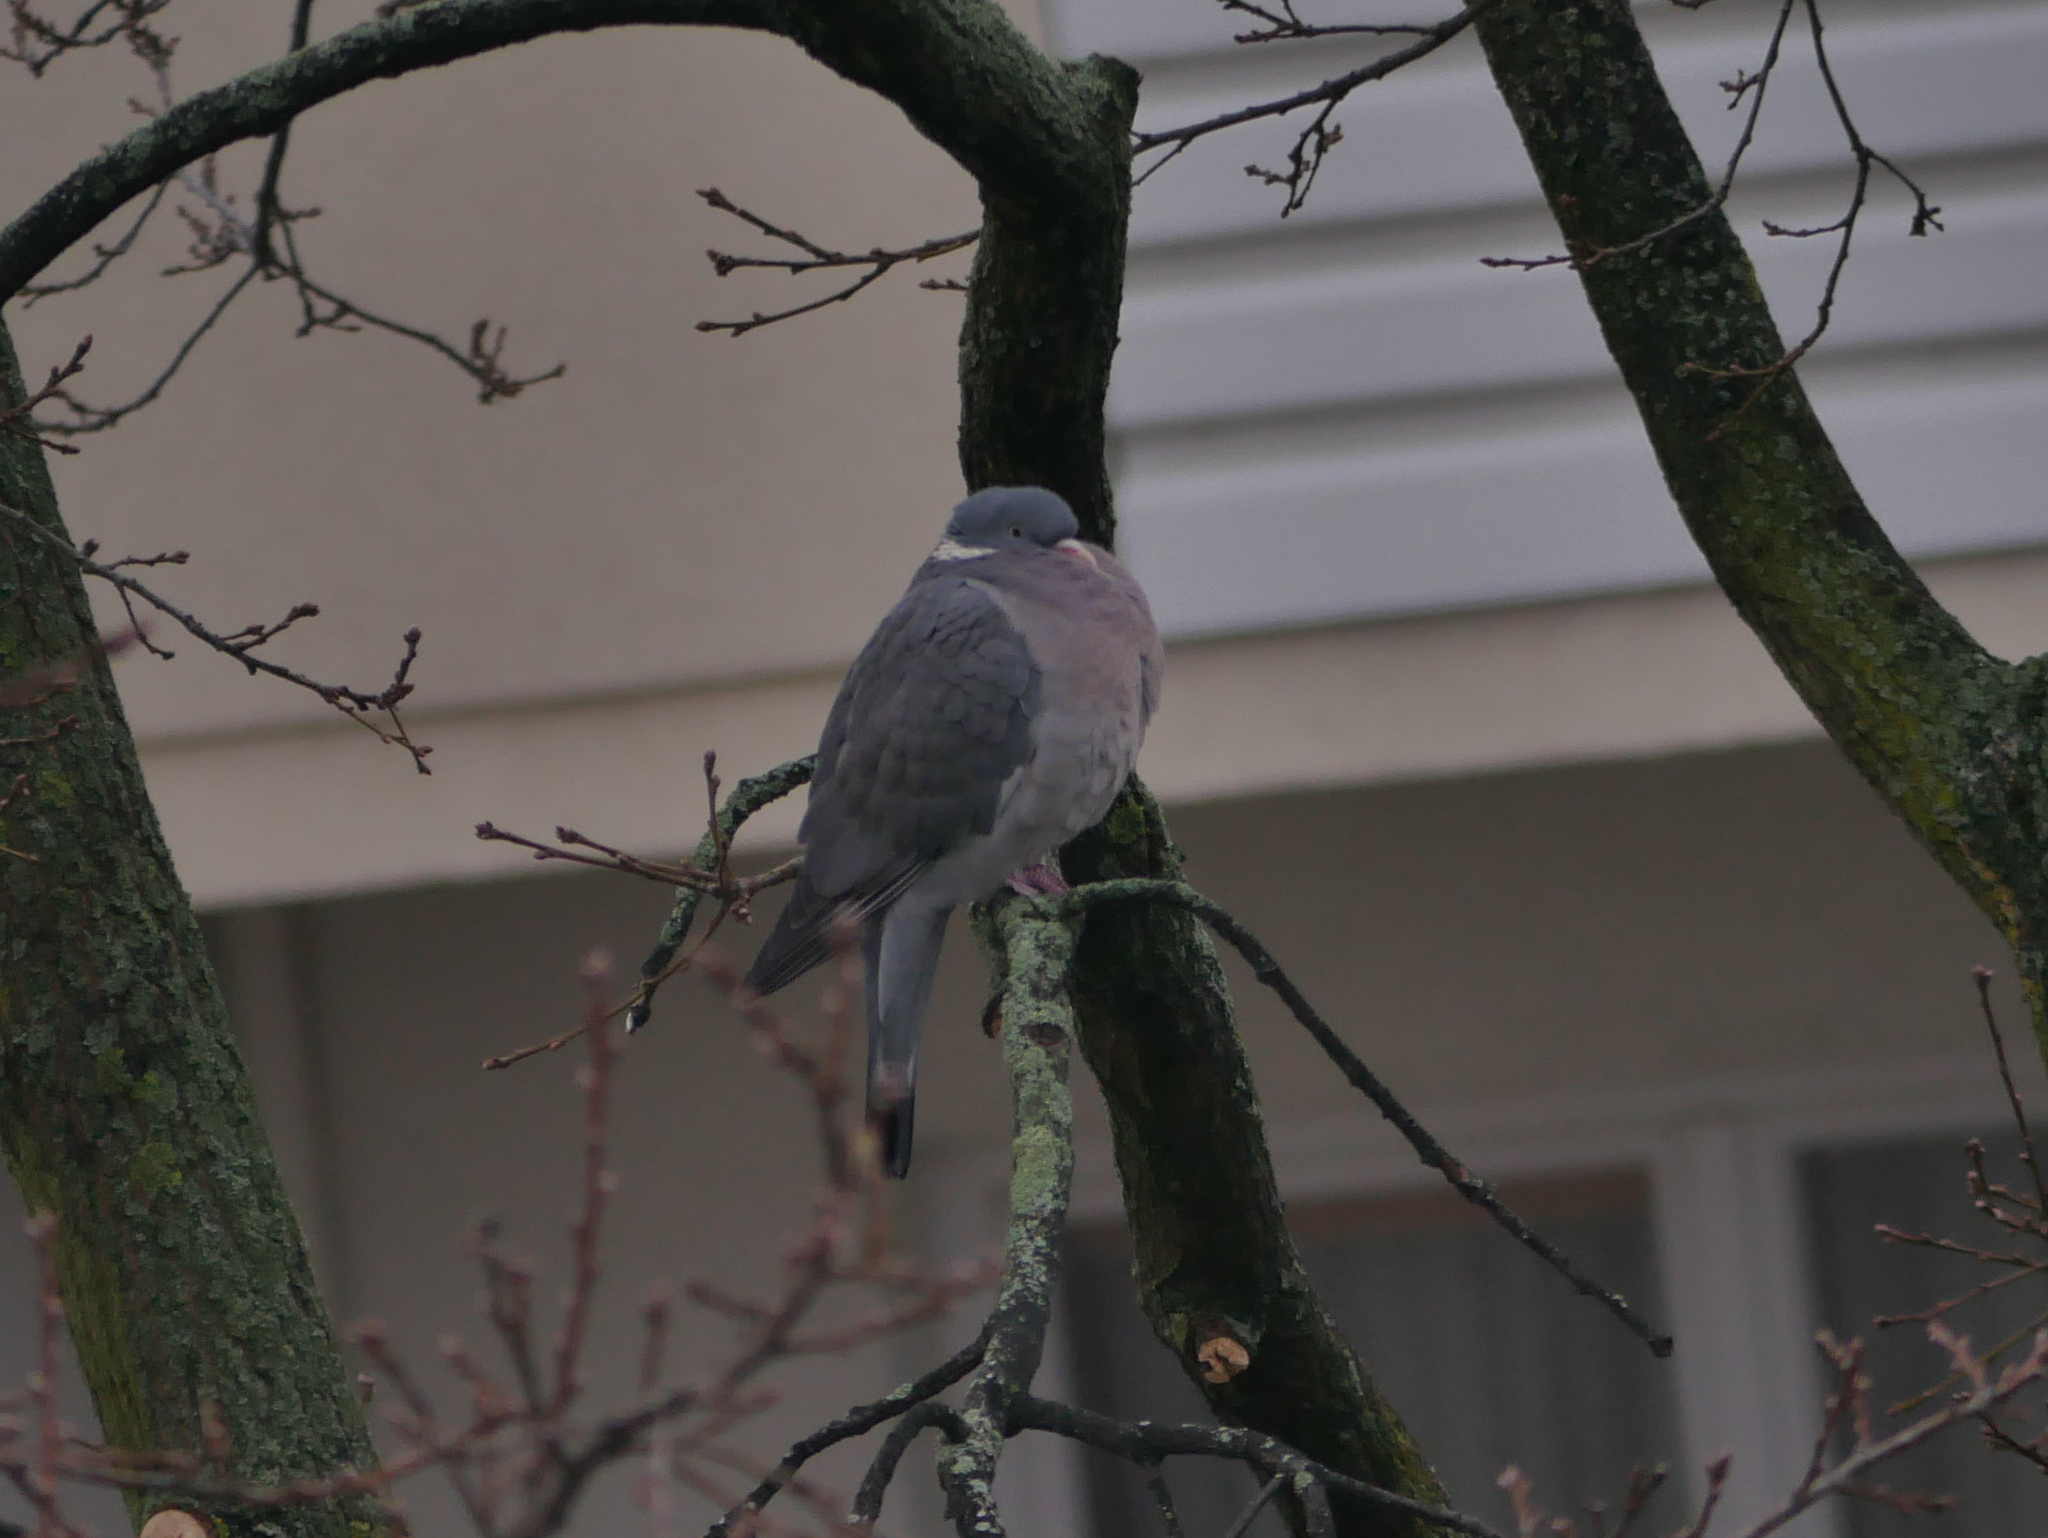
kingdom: Animalia
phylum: Chordata
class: Aves
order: Columbiformes
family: Columbidae
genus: Columba
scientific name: Columba palumbus
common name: Common wood pigeon
